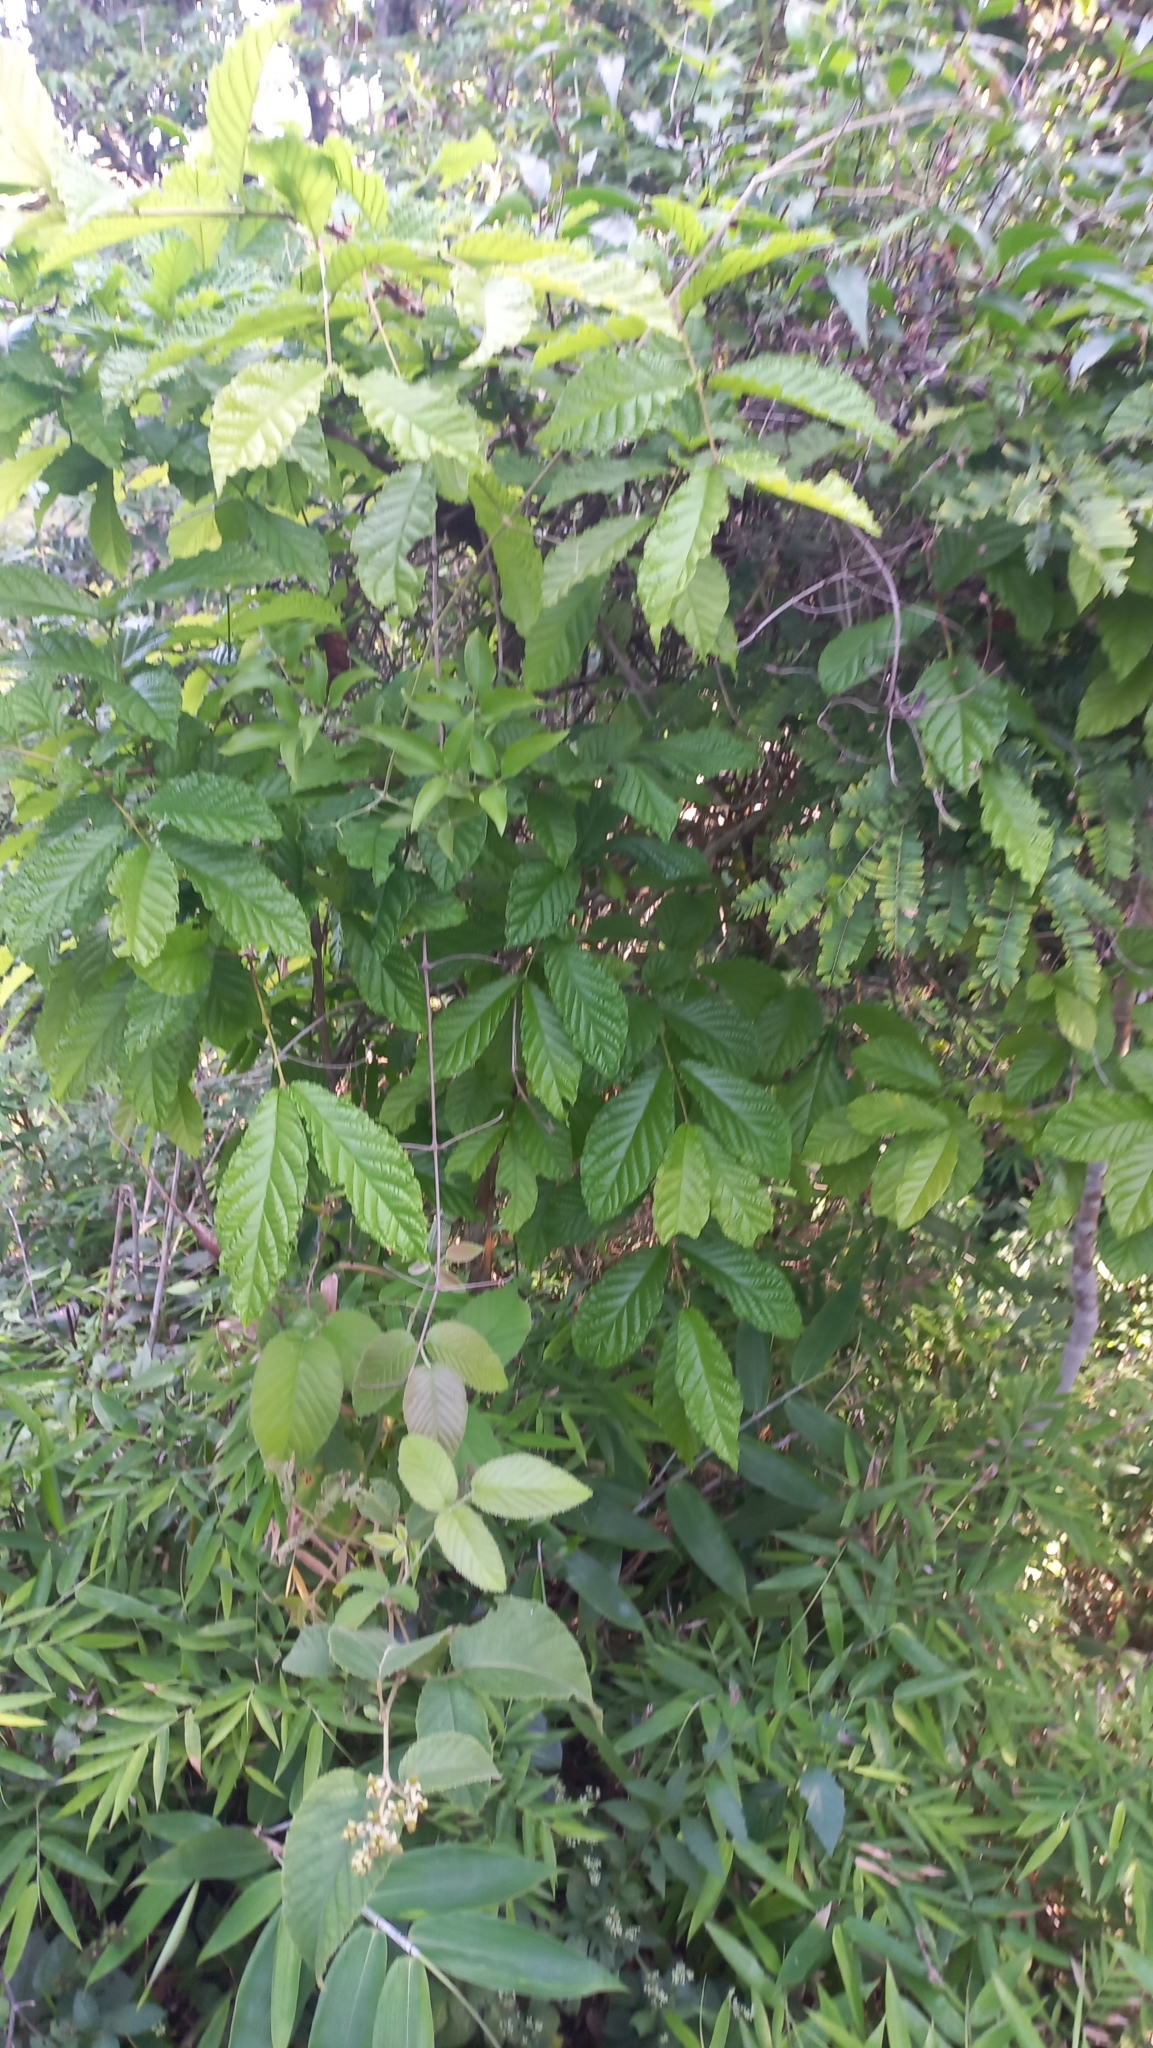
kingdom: Plantae
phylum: Tracheophyta
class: Magnoliopsida
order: Myrtales
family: Myrtaceae
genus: Campomanesia
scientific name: Campomanesia reitziana
